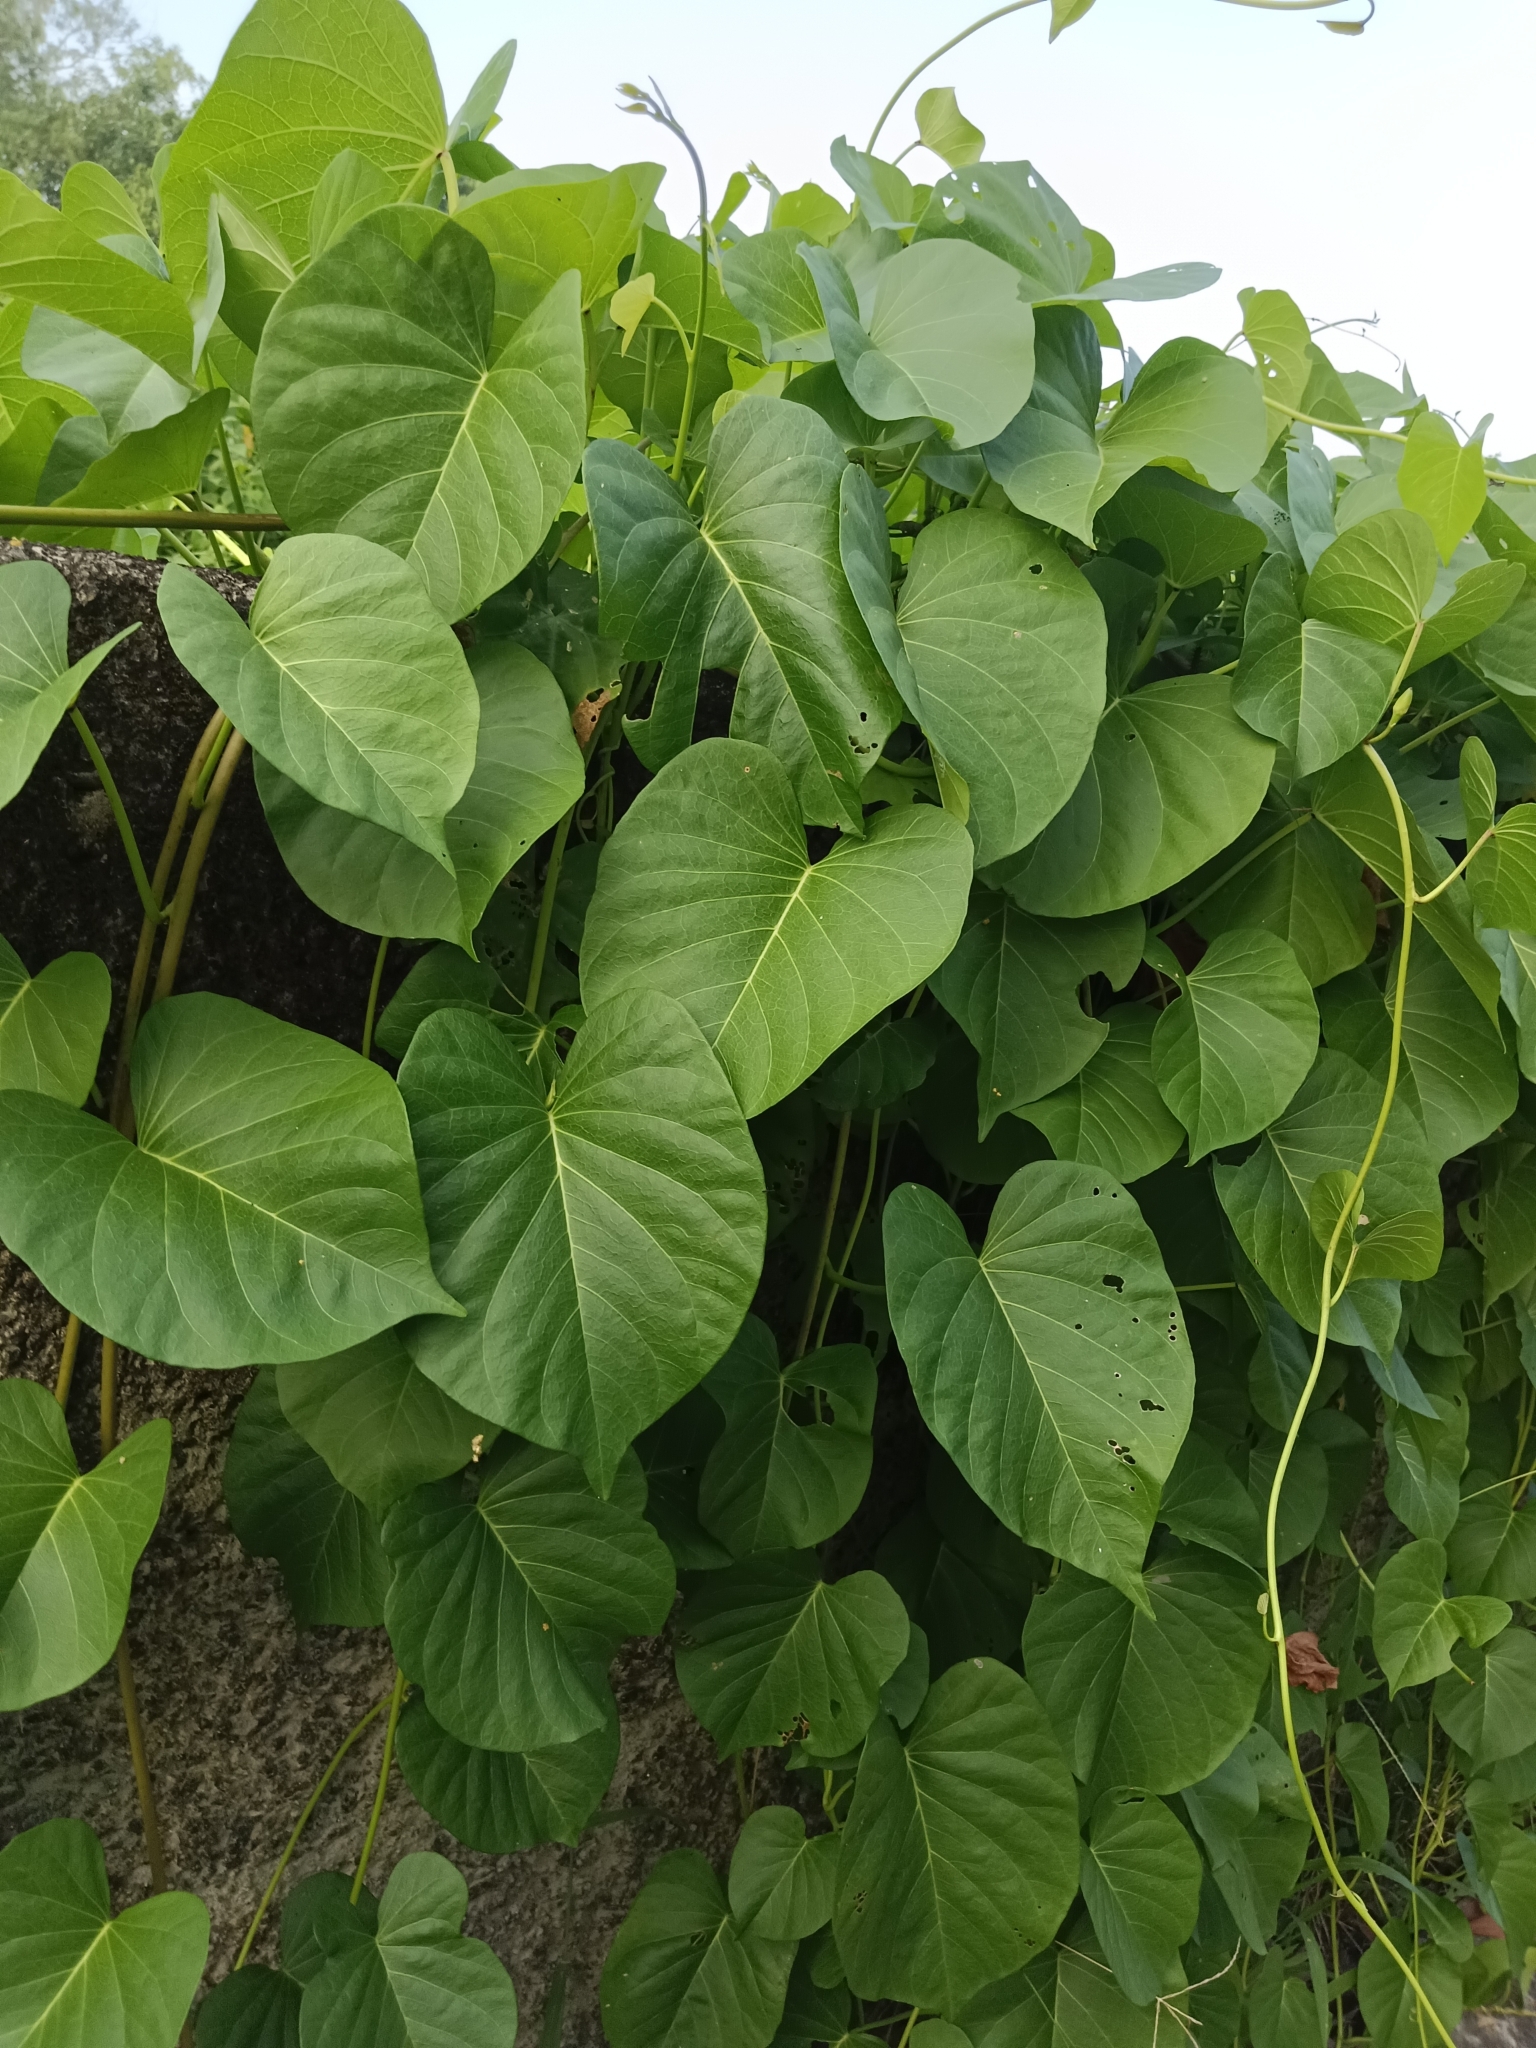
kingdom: Plantae
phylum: Tracheophyta
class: Magnoliopsida
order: Solanales
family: Convolvulaceae
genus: Ipomoea
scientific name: Ipomoea violacea
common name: Beach moonflower
